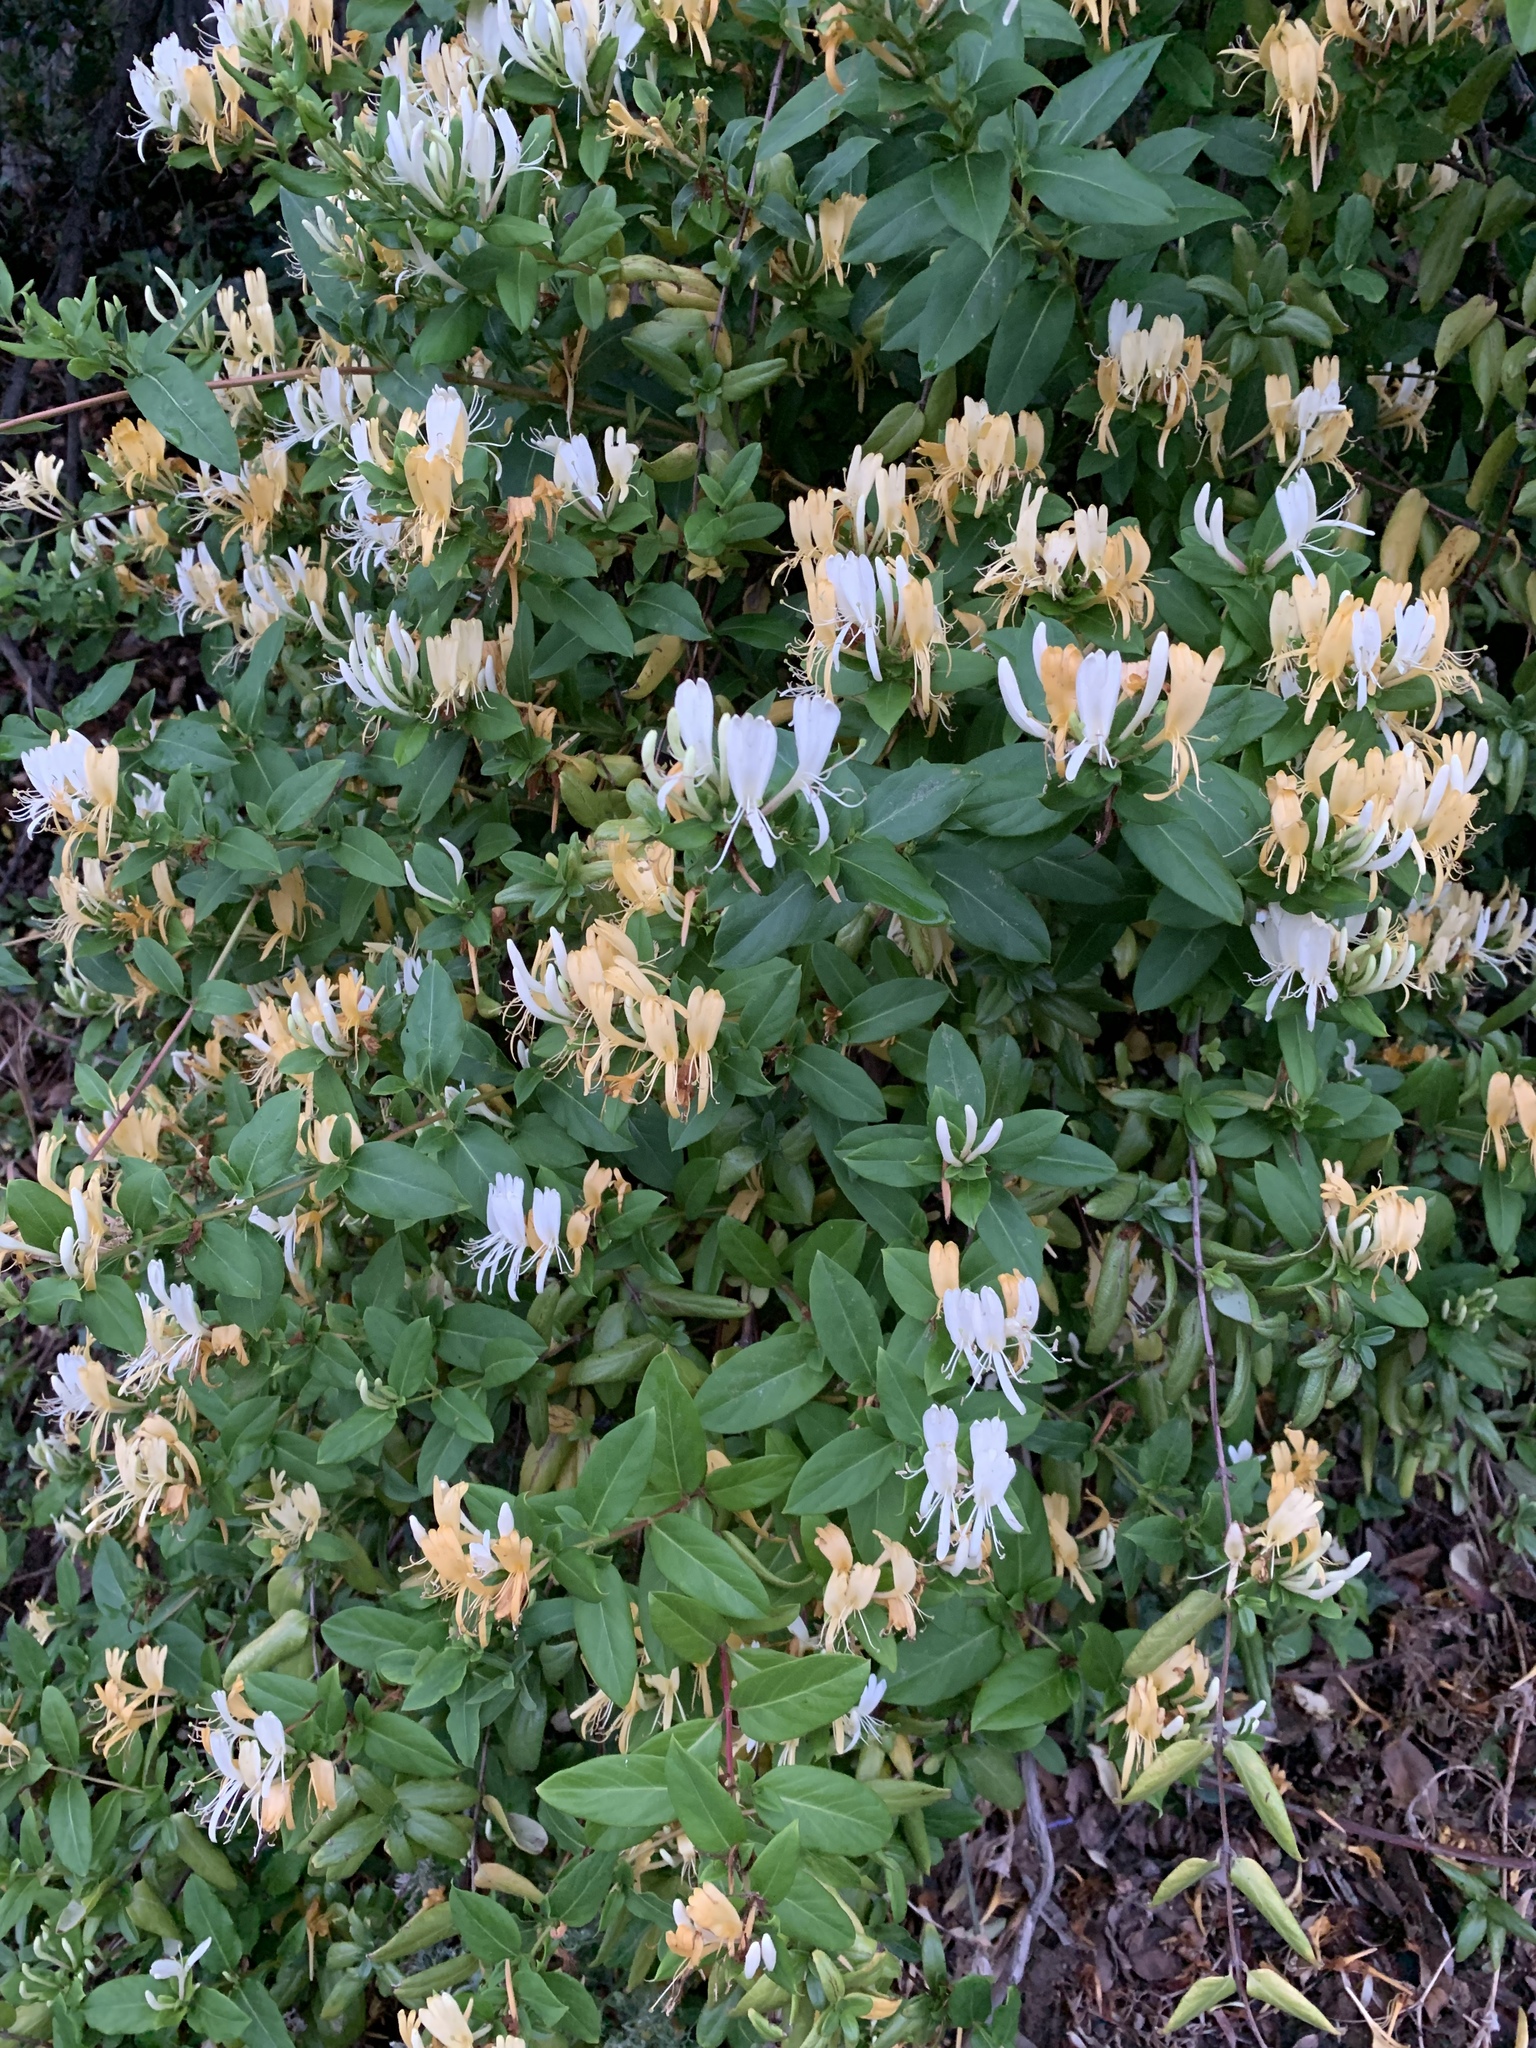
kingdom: Plantae
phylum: Tracheophyta
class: Magnoliopsida
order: Dipsacales
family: Caprifoliaceae
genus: Lonicera
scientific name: Lonicera japonica
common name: Japanese honeysuckle
